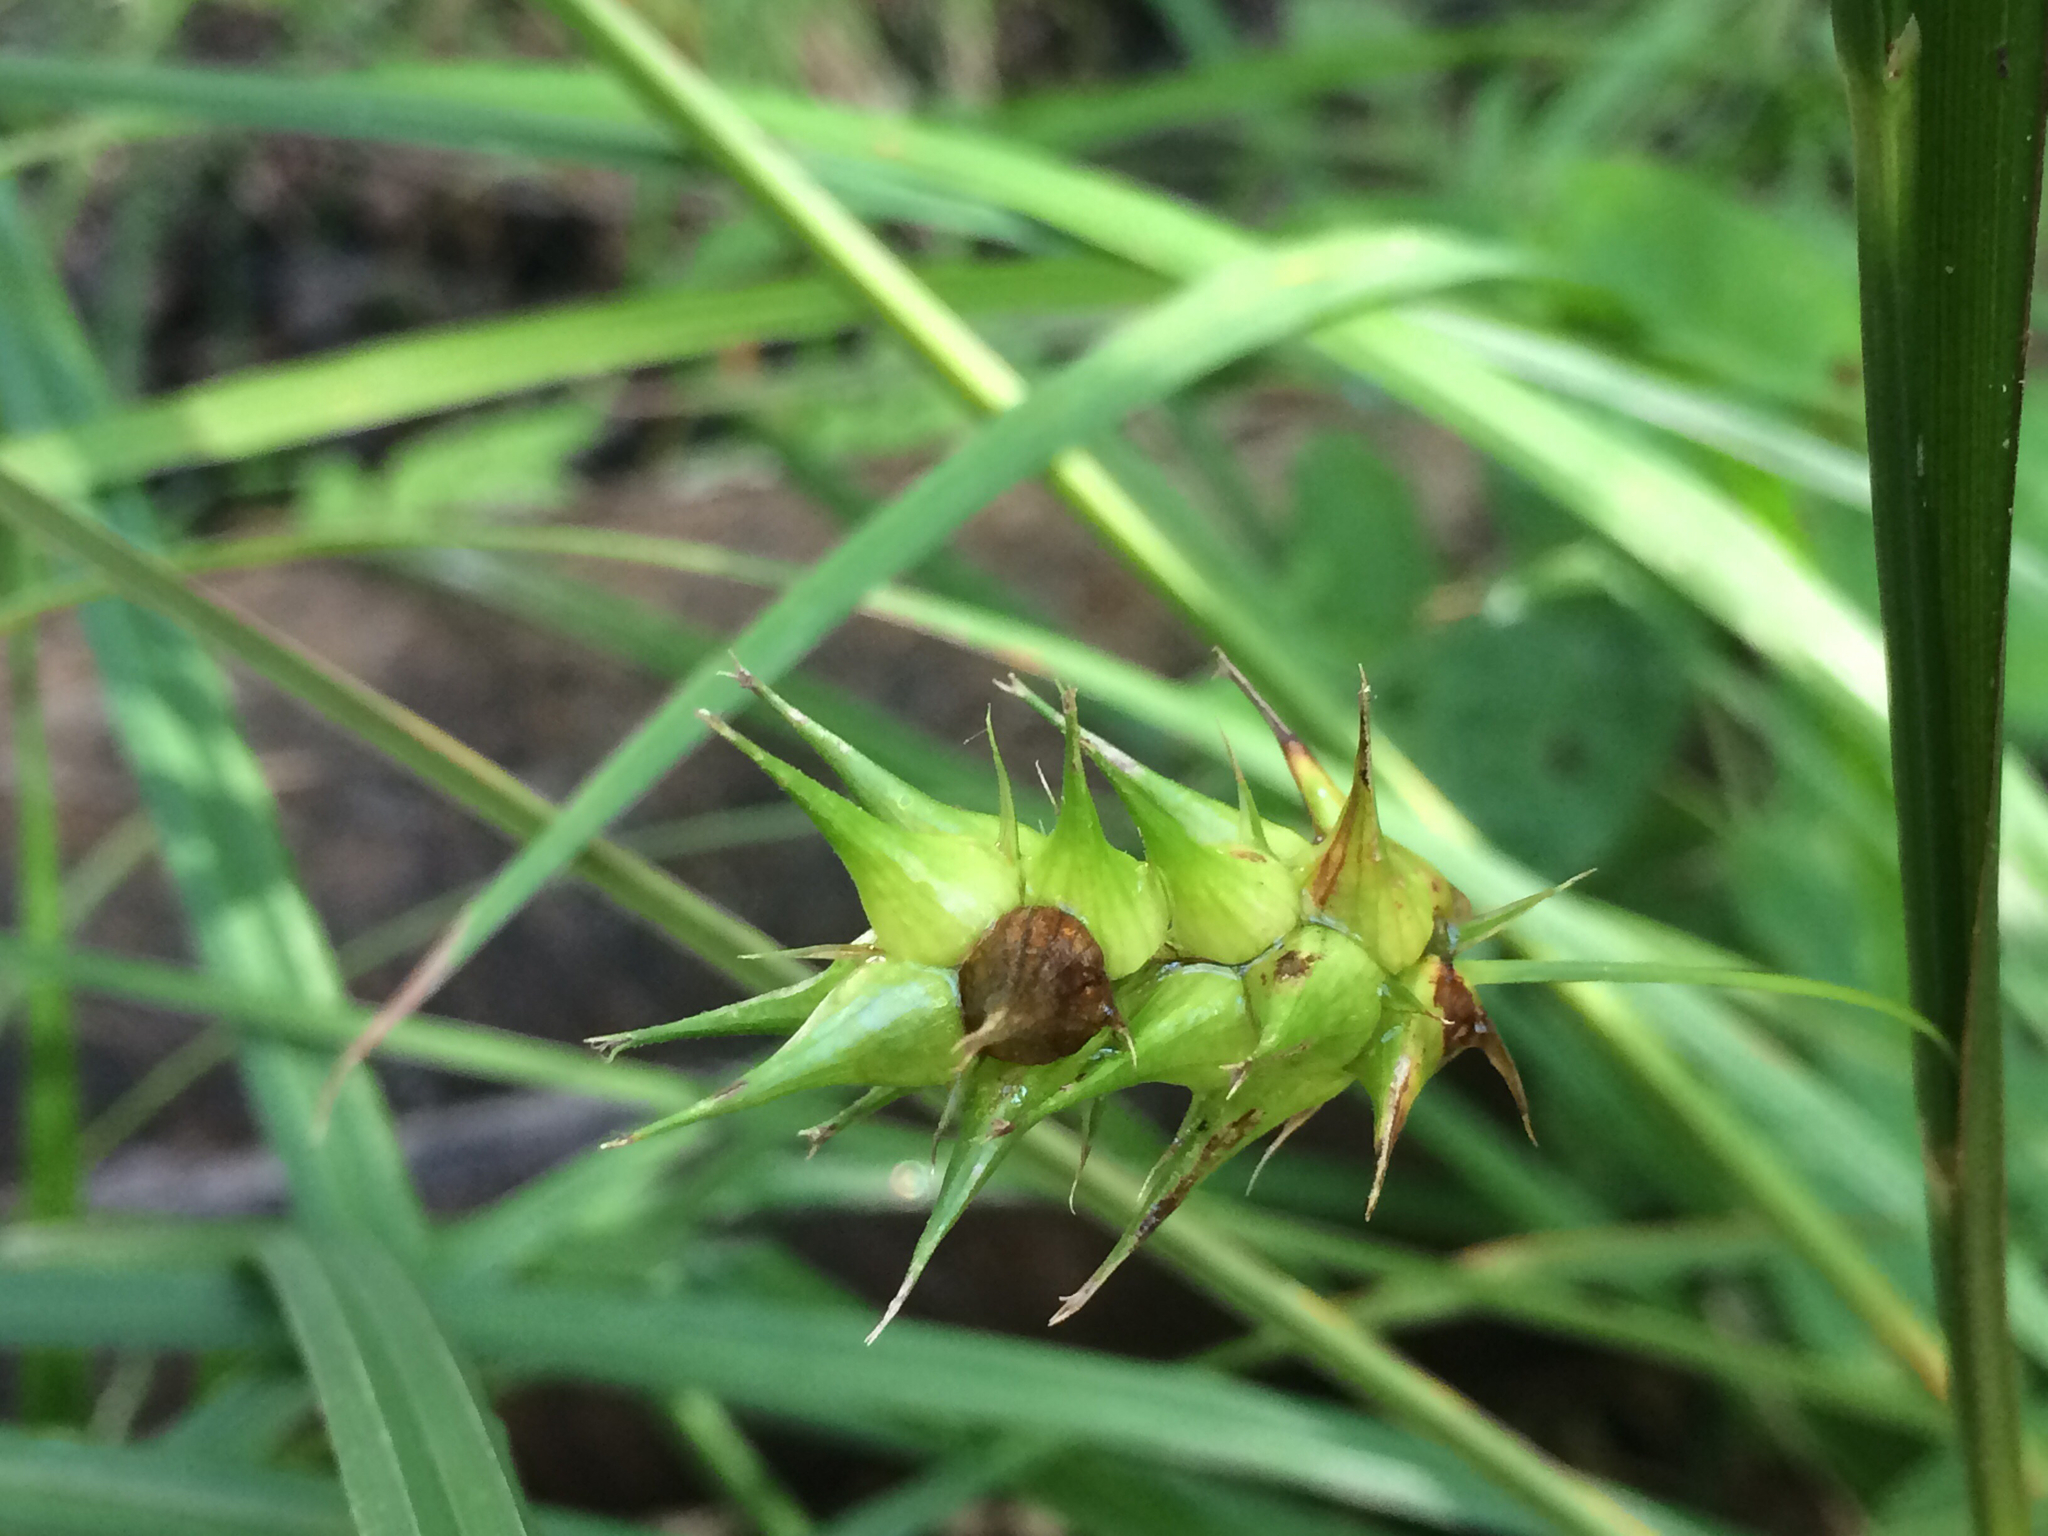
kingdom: Plantae
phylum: Tracheophyta
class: Liliopsida
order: Poales
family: Cyperaceae
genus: Carex
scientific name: Carex lupulina
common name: Hop sedge
